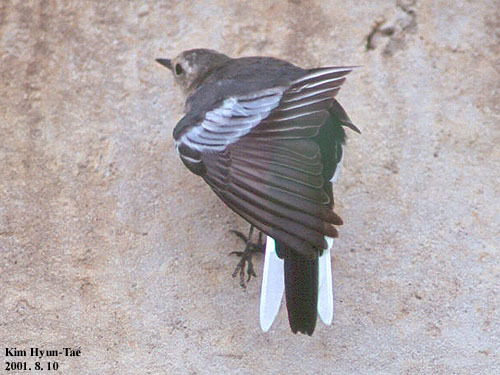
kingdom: Animalia
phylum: Chordata
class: Aves
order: Passeriformes
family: Motacillidae
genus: Motacilla
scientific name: Motacilla alba
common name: White wagtail
